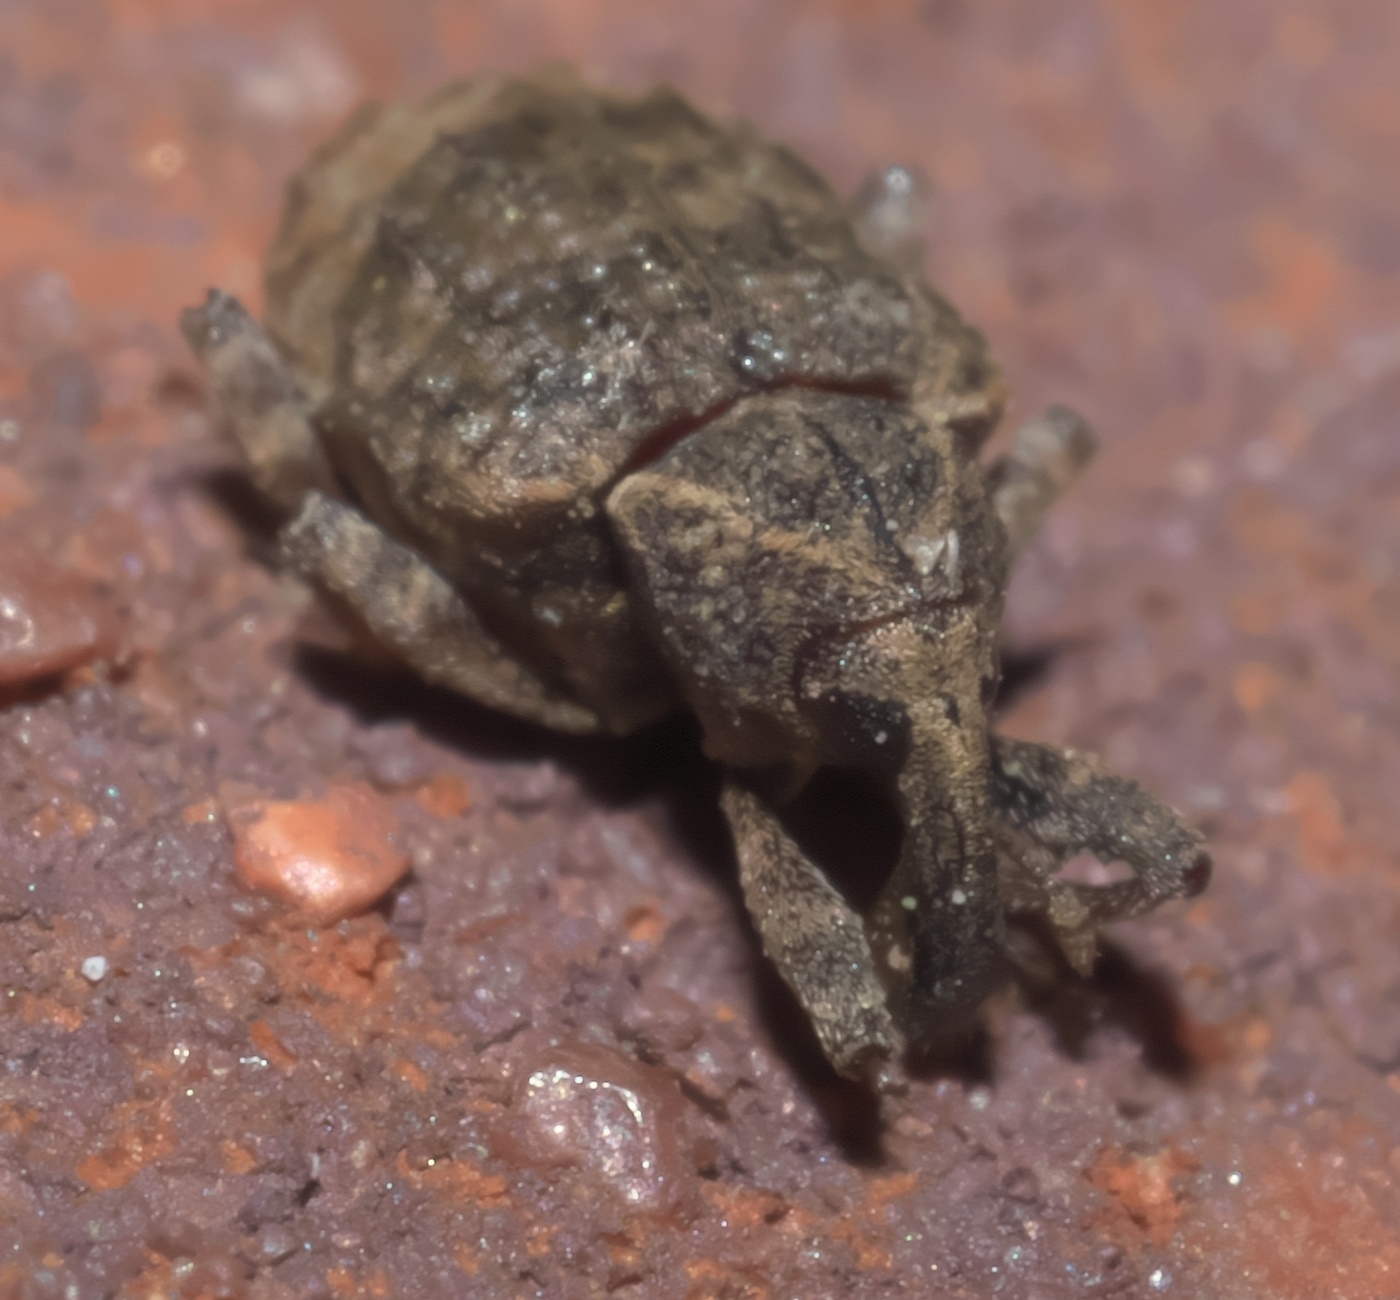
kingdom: Animalia
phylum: Arthropoda
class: Insecta
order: Coleoptera
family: Curculionidae
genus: Conotrachelus
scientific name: Conotrachelus seniculus
